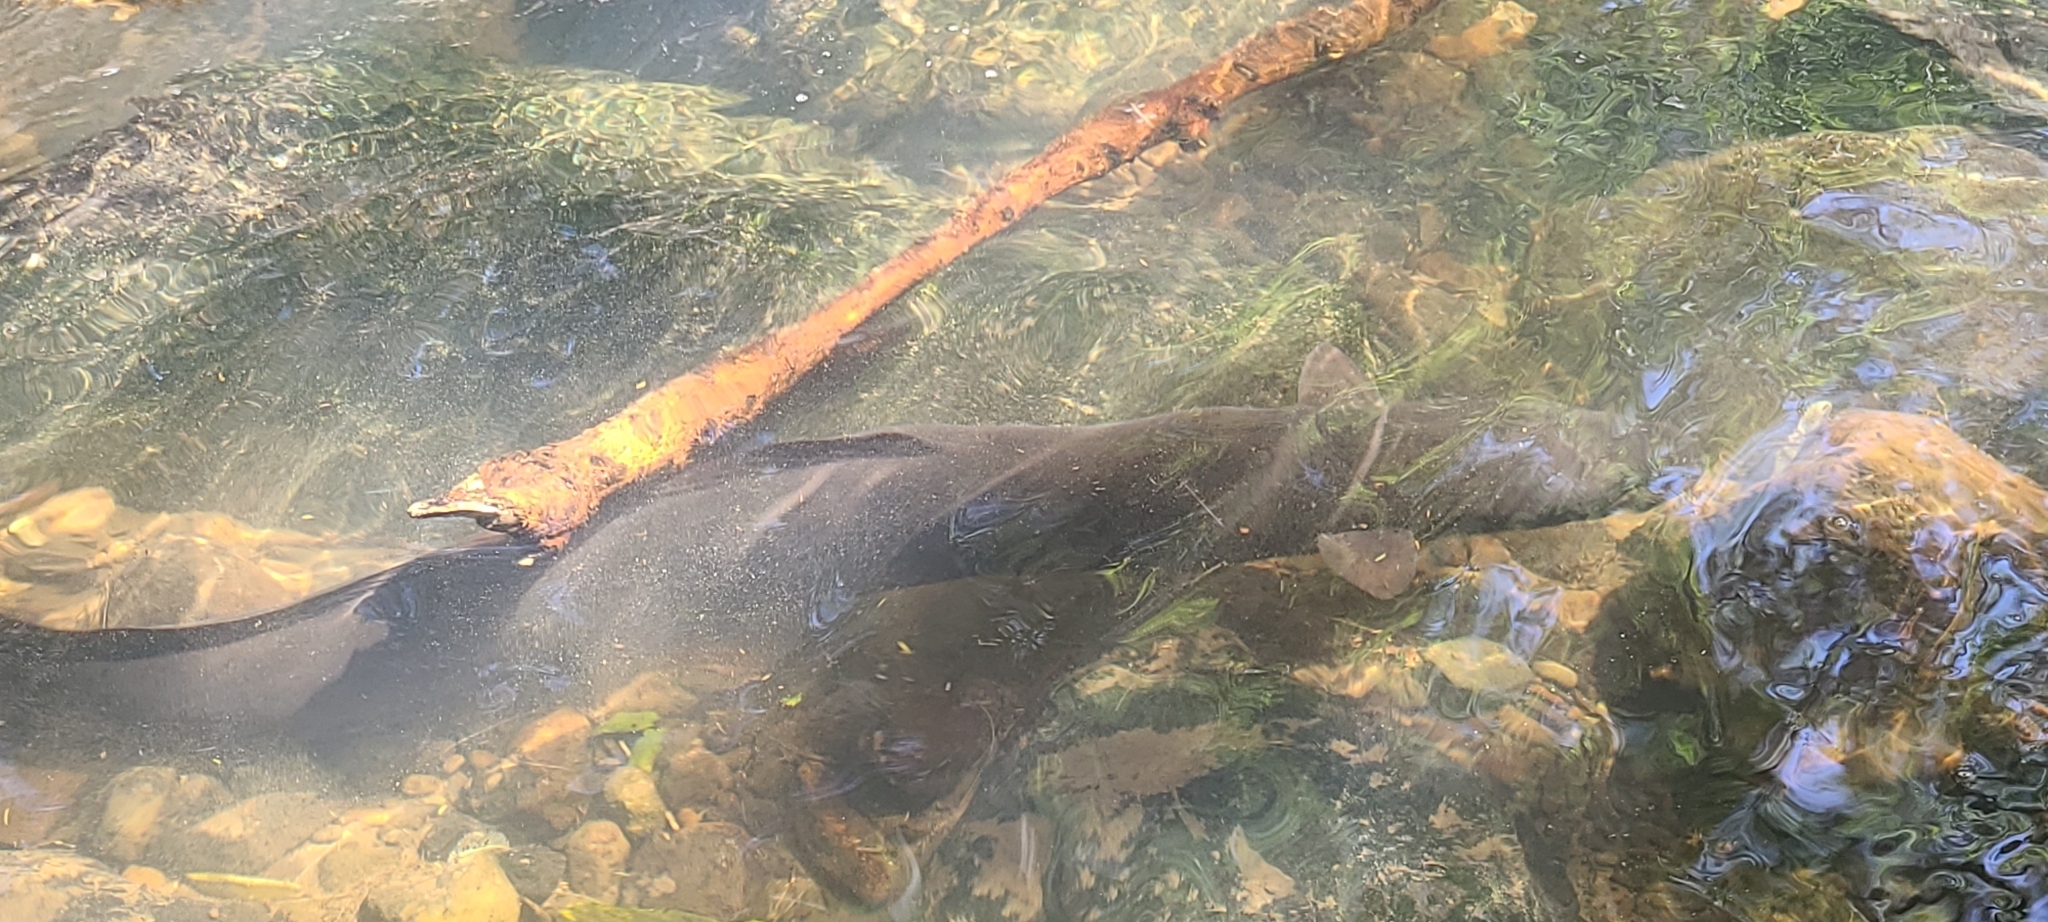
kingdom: Animalia
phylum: Chordata
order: Anguilliformes
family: Anguillidae
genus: Anguilla
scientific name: Anguilla dieffenbachii
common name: New zealand longfin eel
